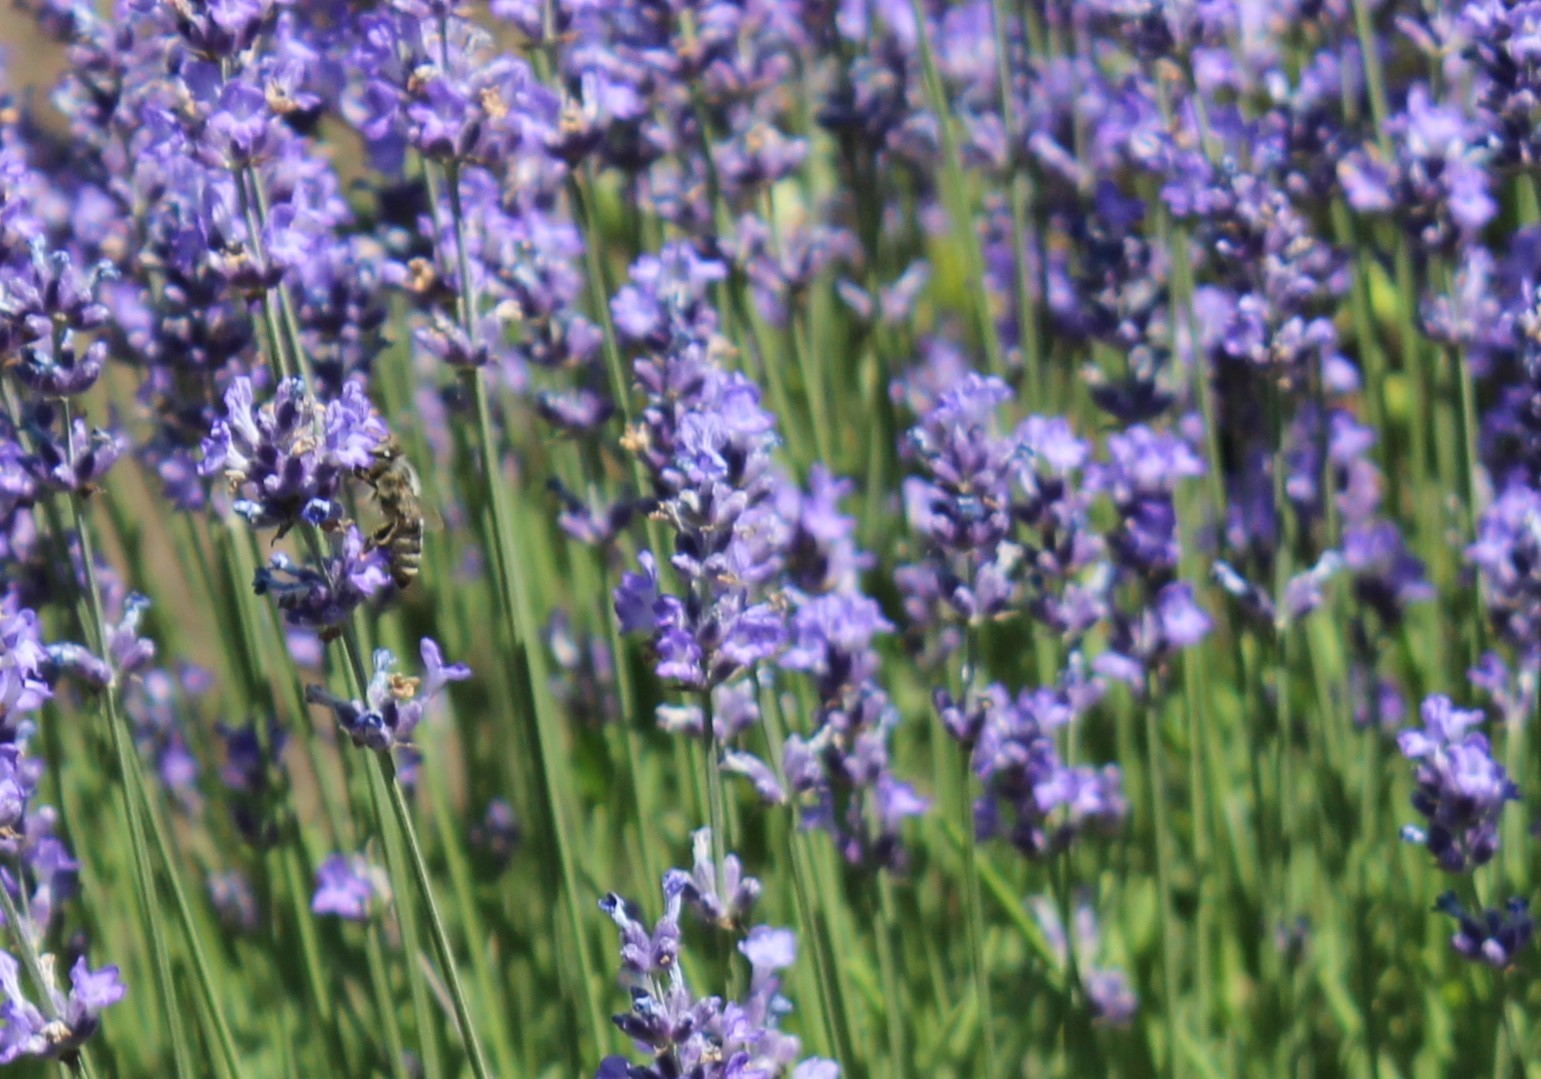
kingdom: Animalia
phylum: Arthropoda
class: Insecta
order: Hymenoptera
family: Apidae
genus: Apis
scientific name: Apis mellifera
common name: Honey bee
